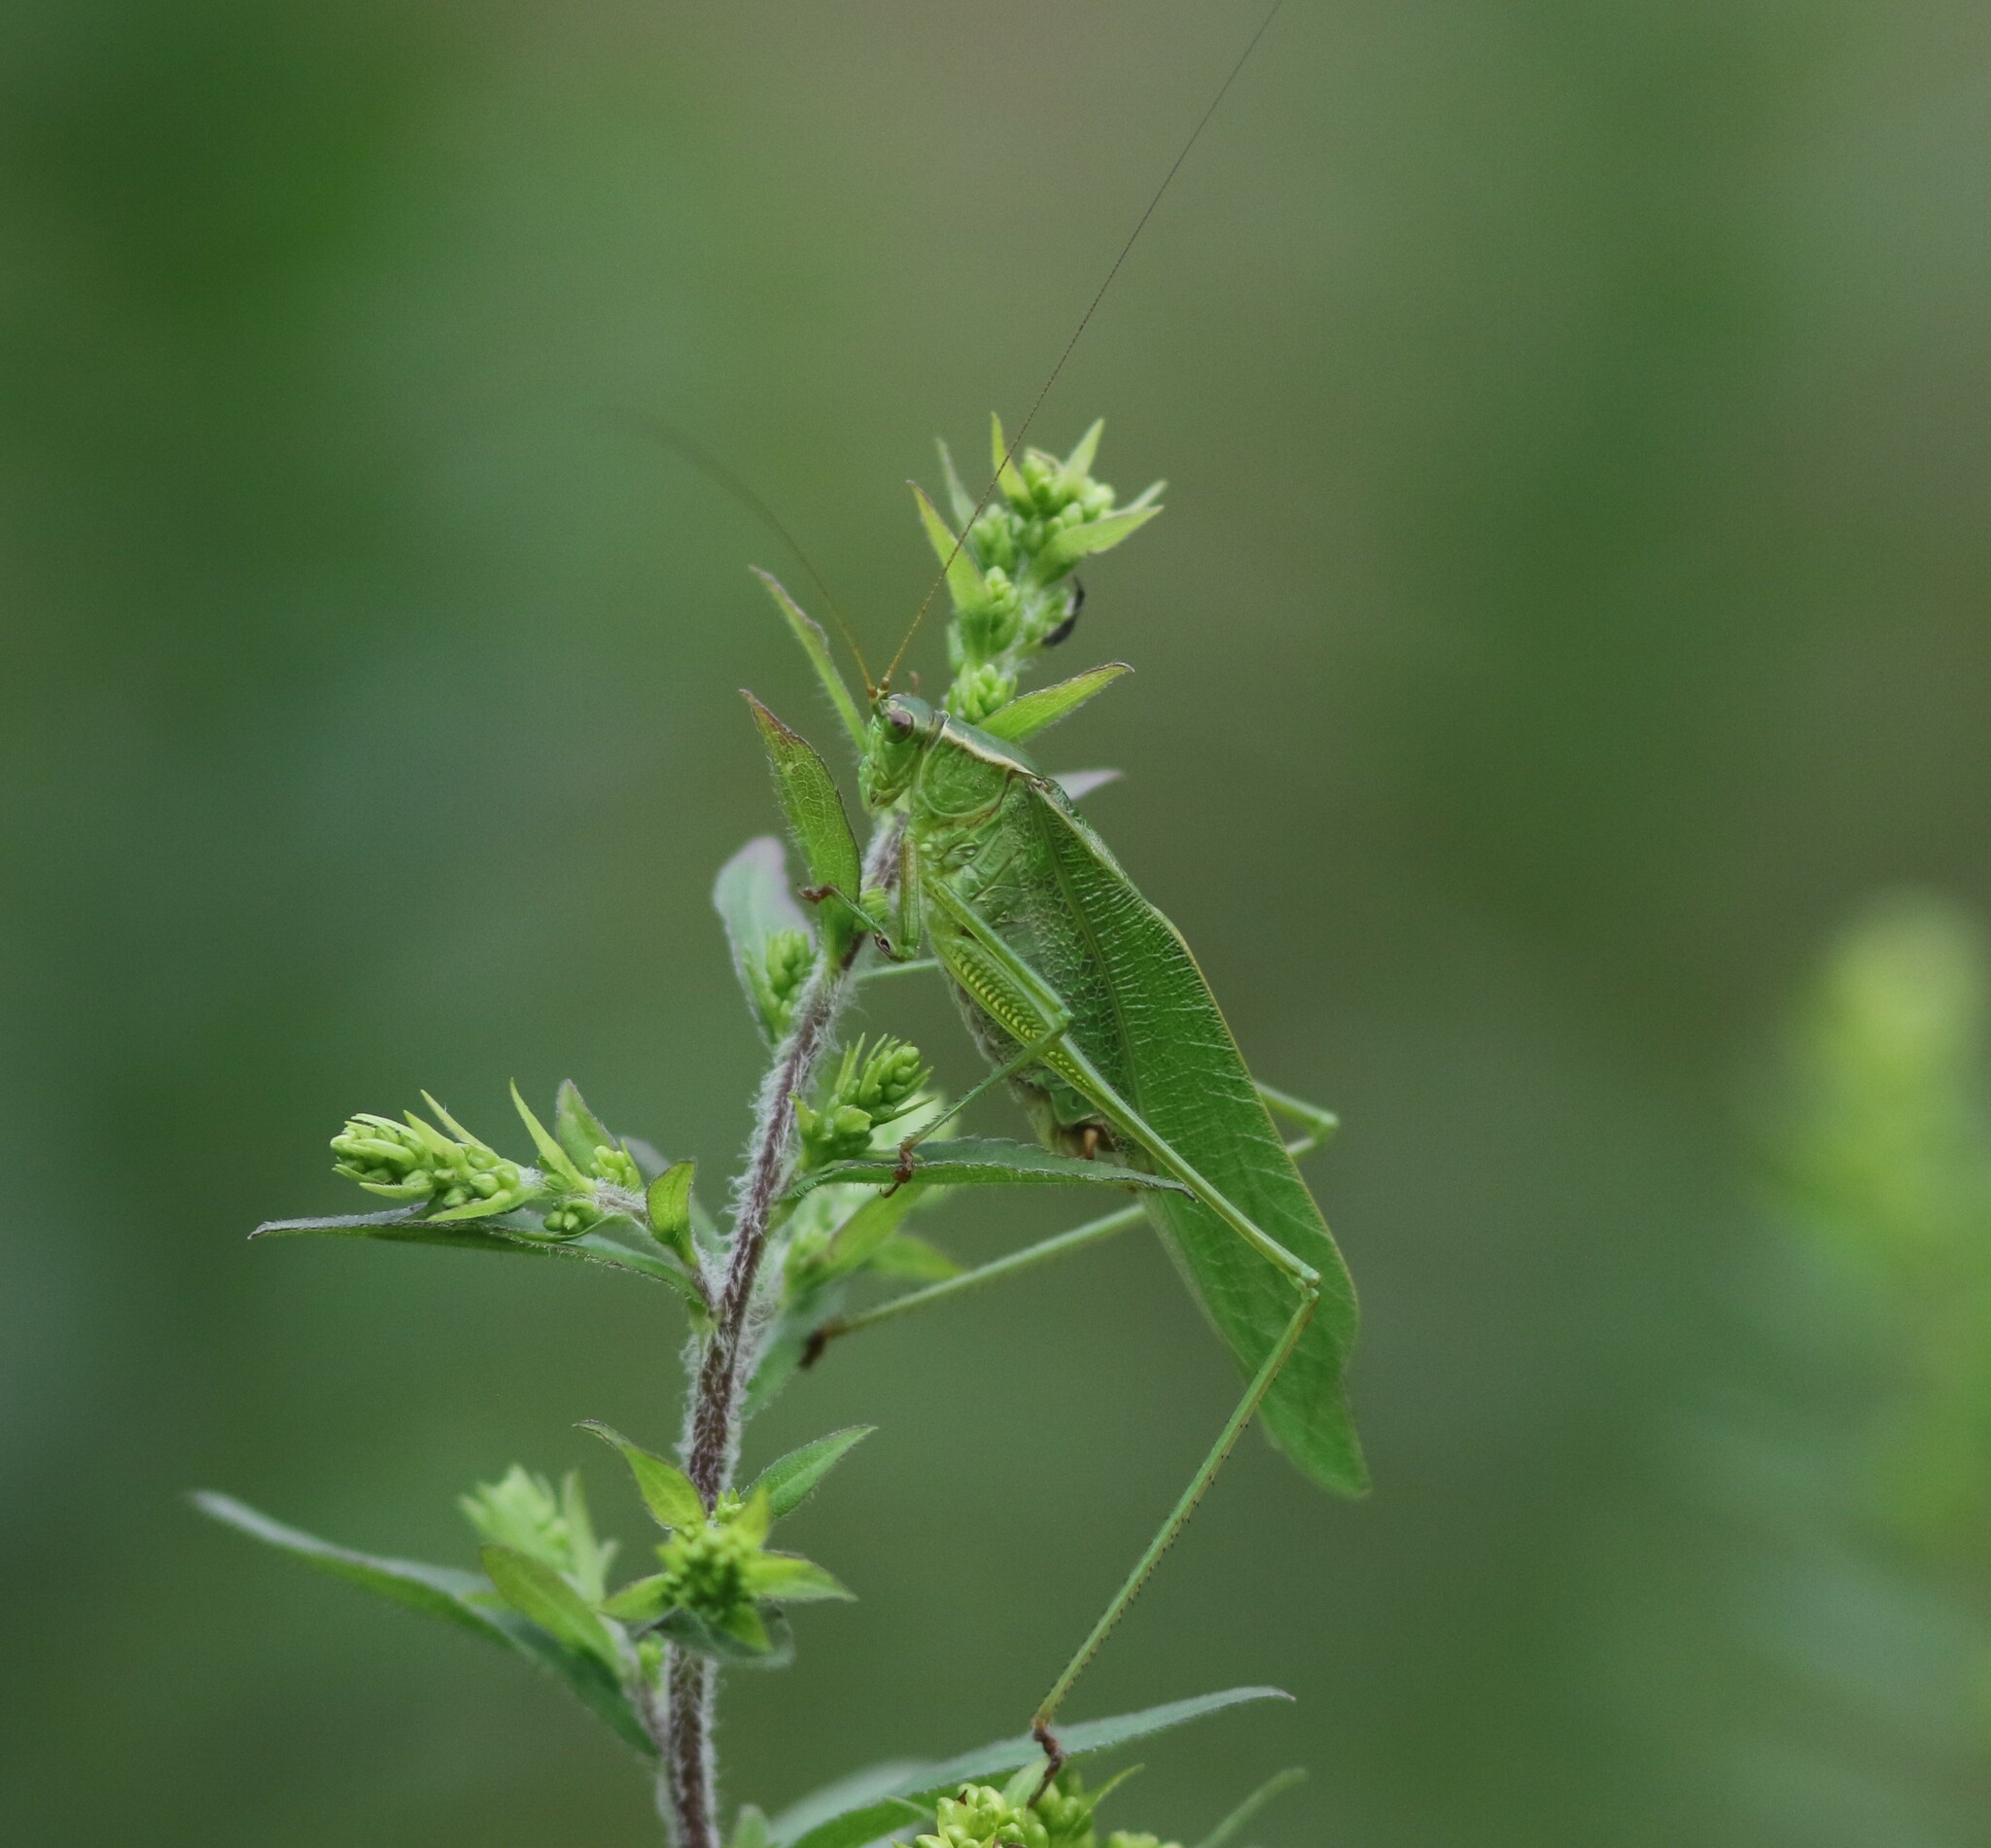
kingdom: Animalia
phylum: Arthropoda
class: Insecta
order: Orthoptera
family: Tettigoniidae
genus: Scudderia
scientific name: Scudderia furcata
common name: Fork-tailed bush katydid
